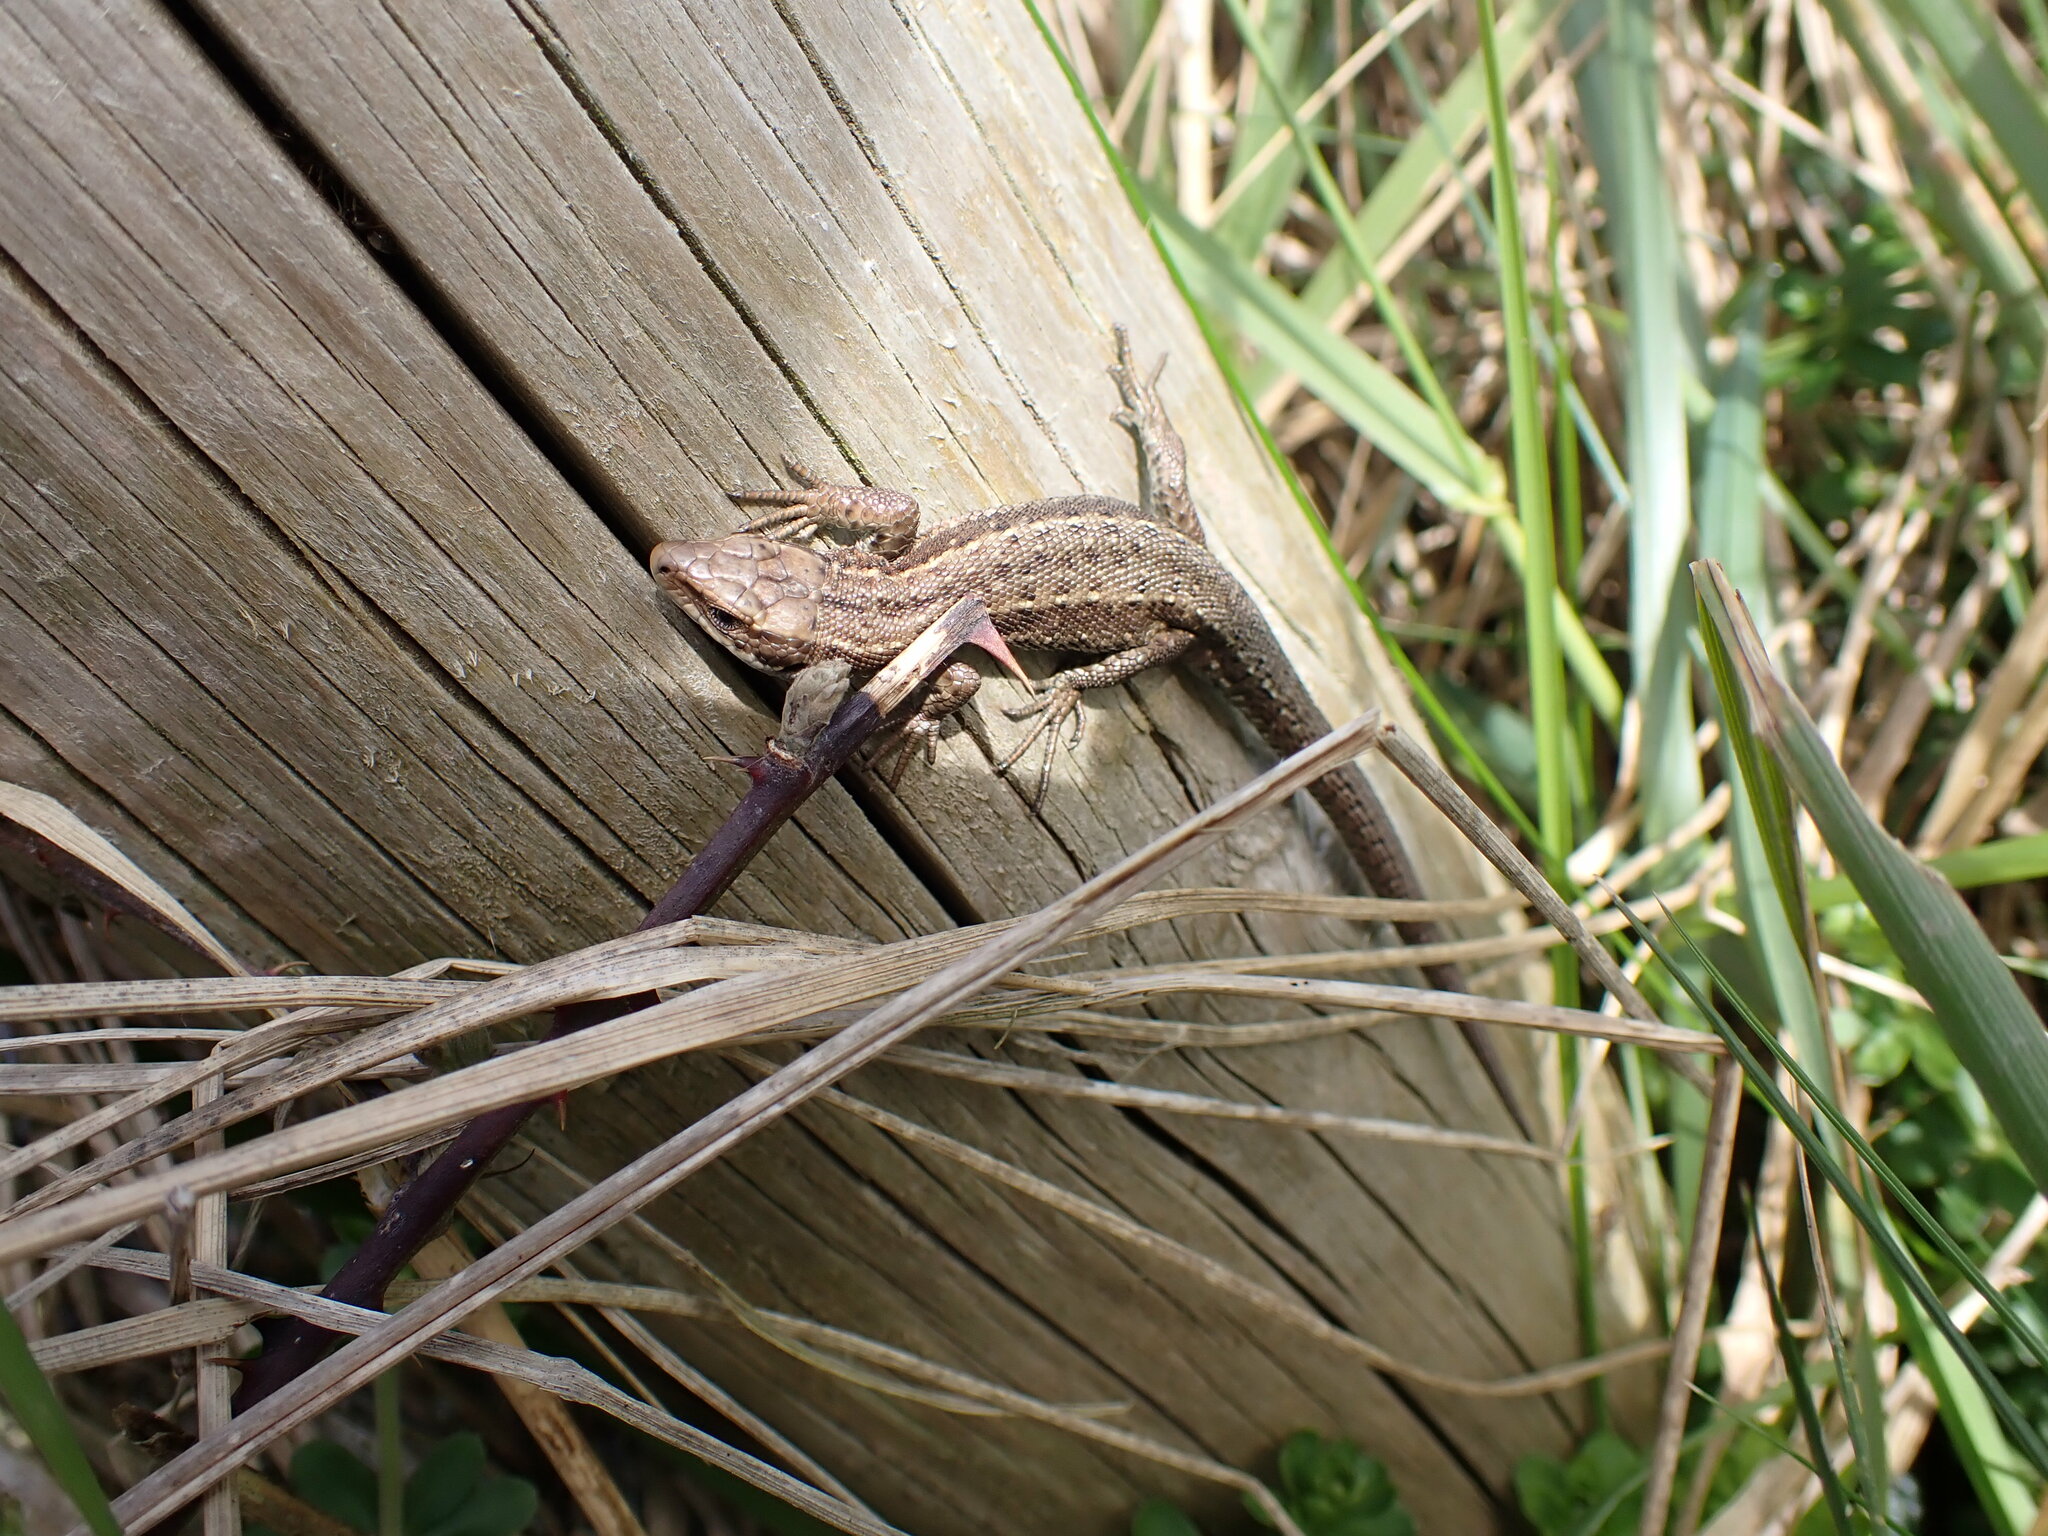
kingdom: Animalia
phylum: Chordata
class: Squamata
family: Lacertidae
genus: Zootoca
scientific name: Zootoca vivipara
